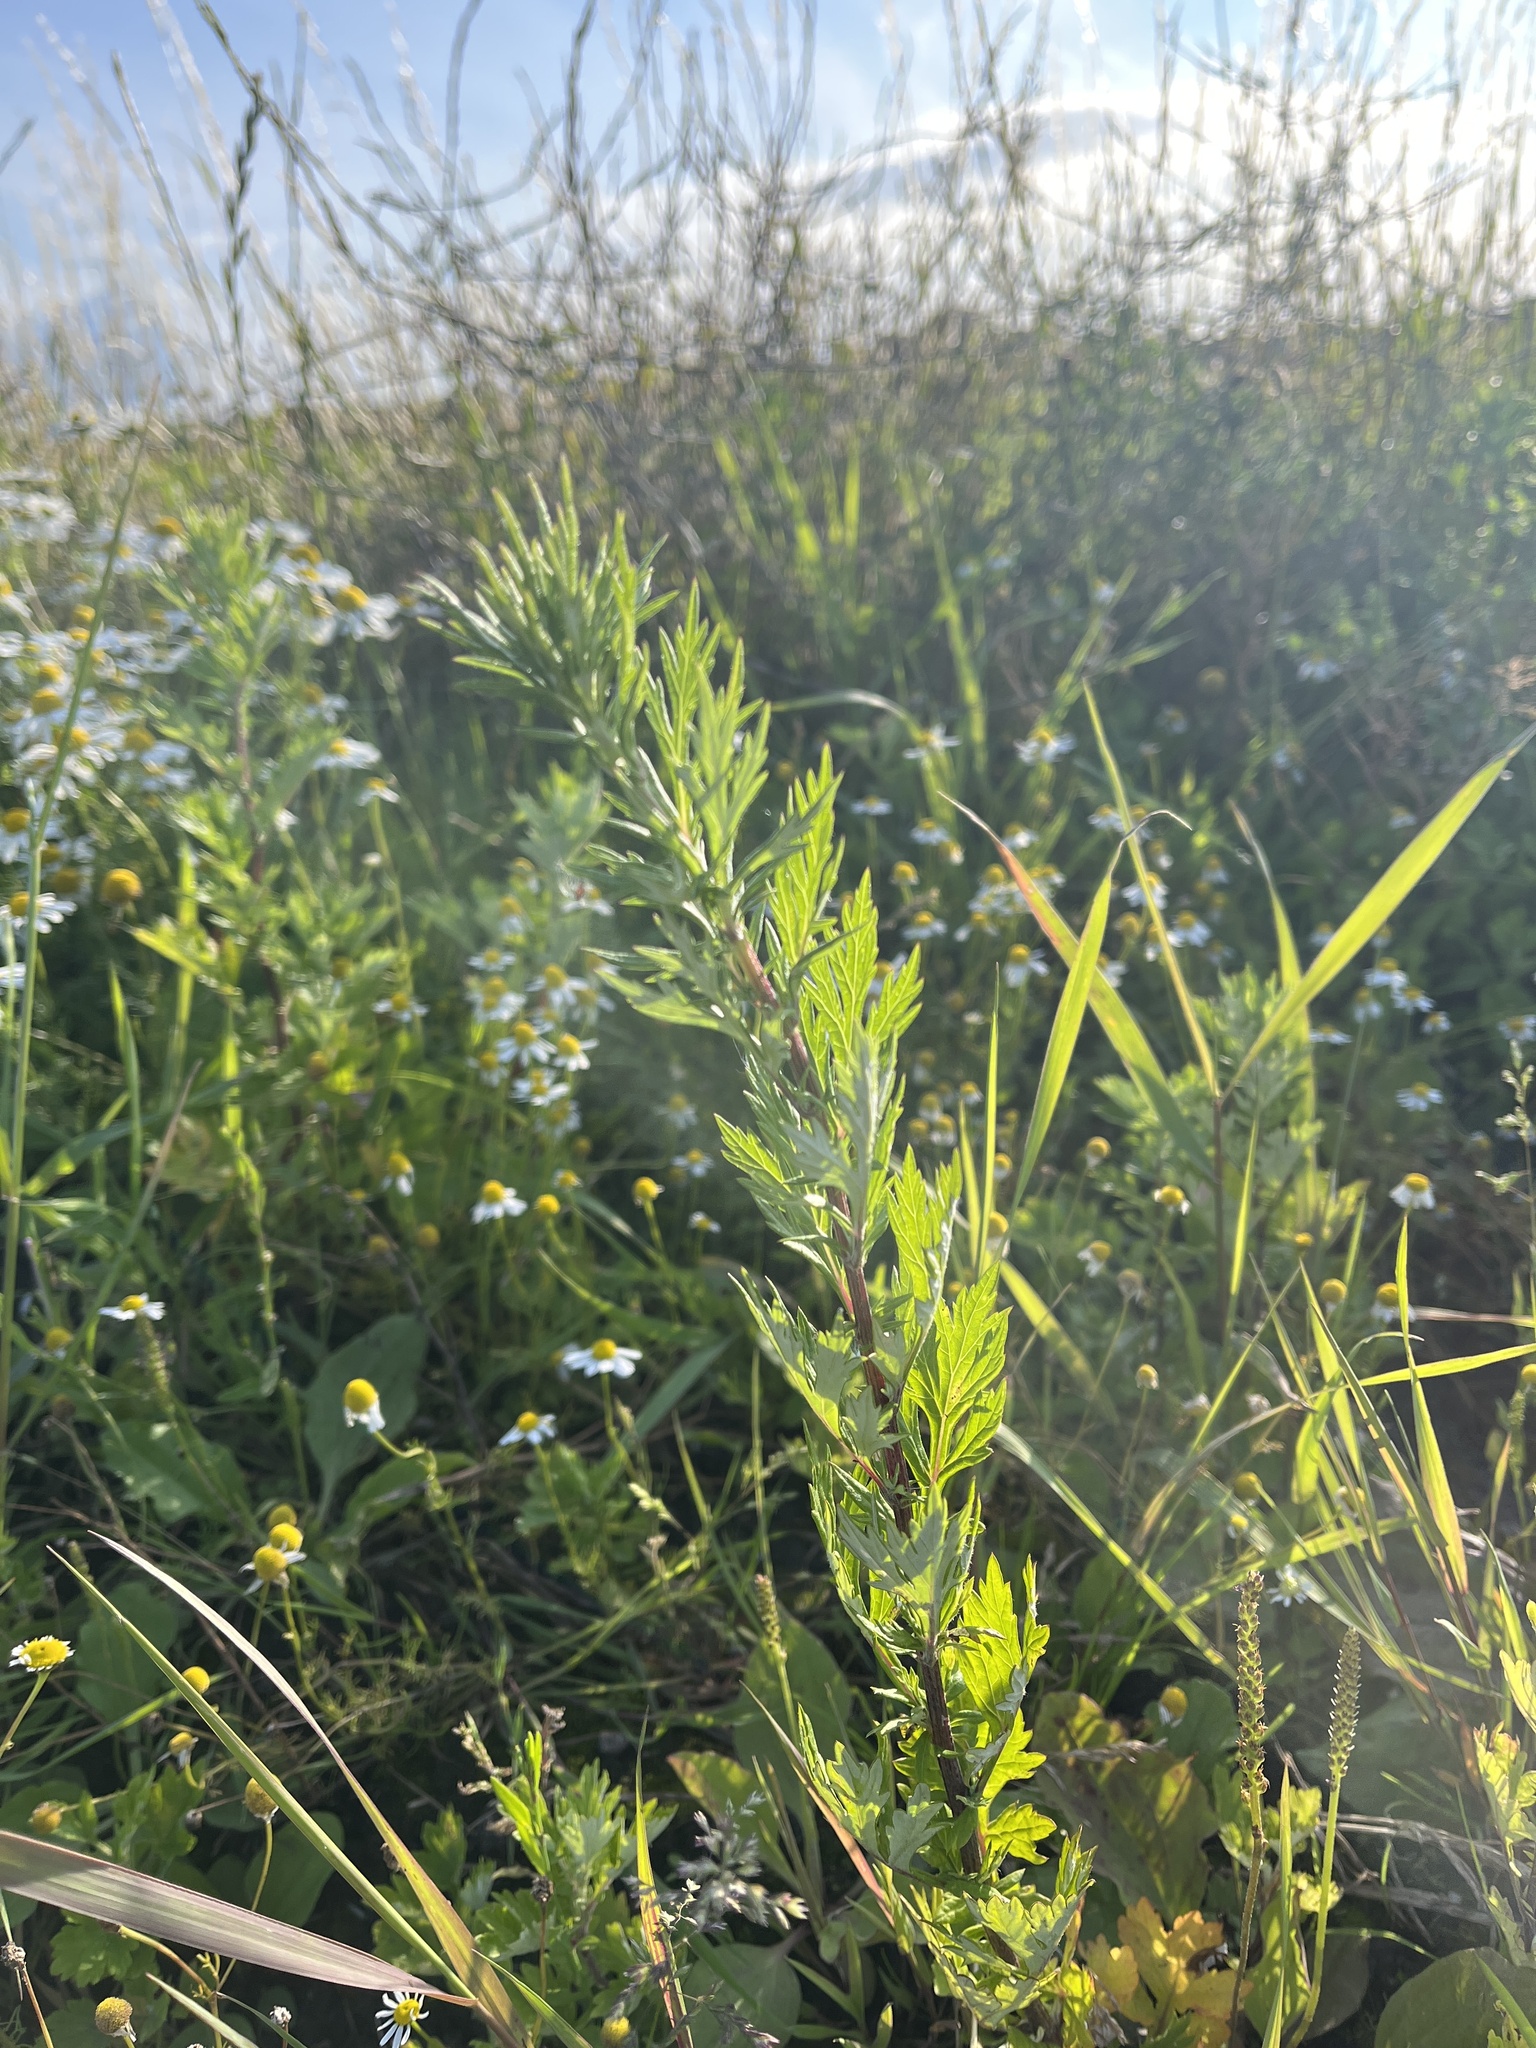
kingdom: Plantae
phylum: Tracheophyta
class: Magnoliopsida
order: Asterales
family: Asteraceae
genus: Artemisia
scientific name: Artemisia vulgaris
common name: Mugwort
